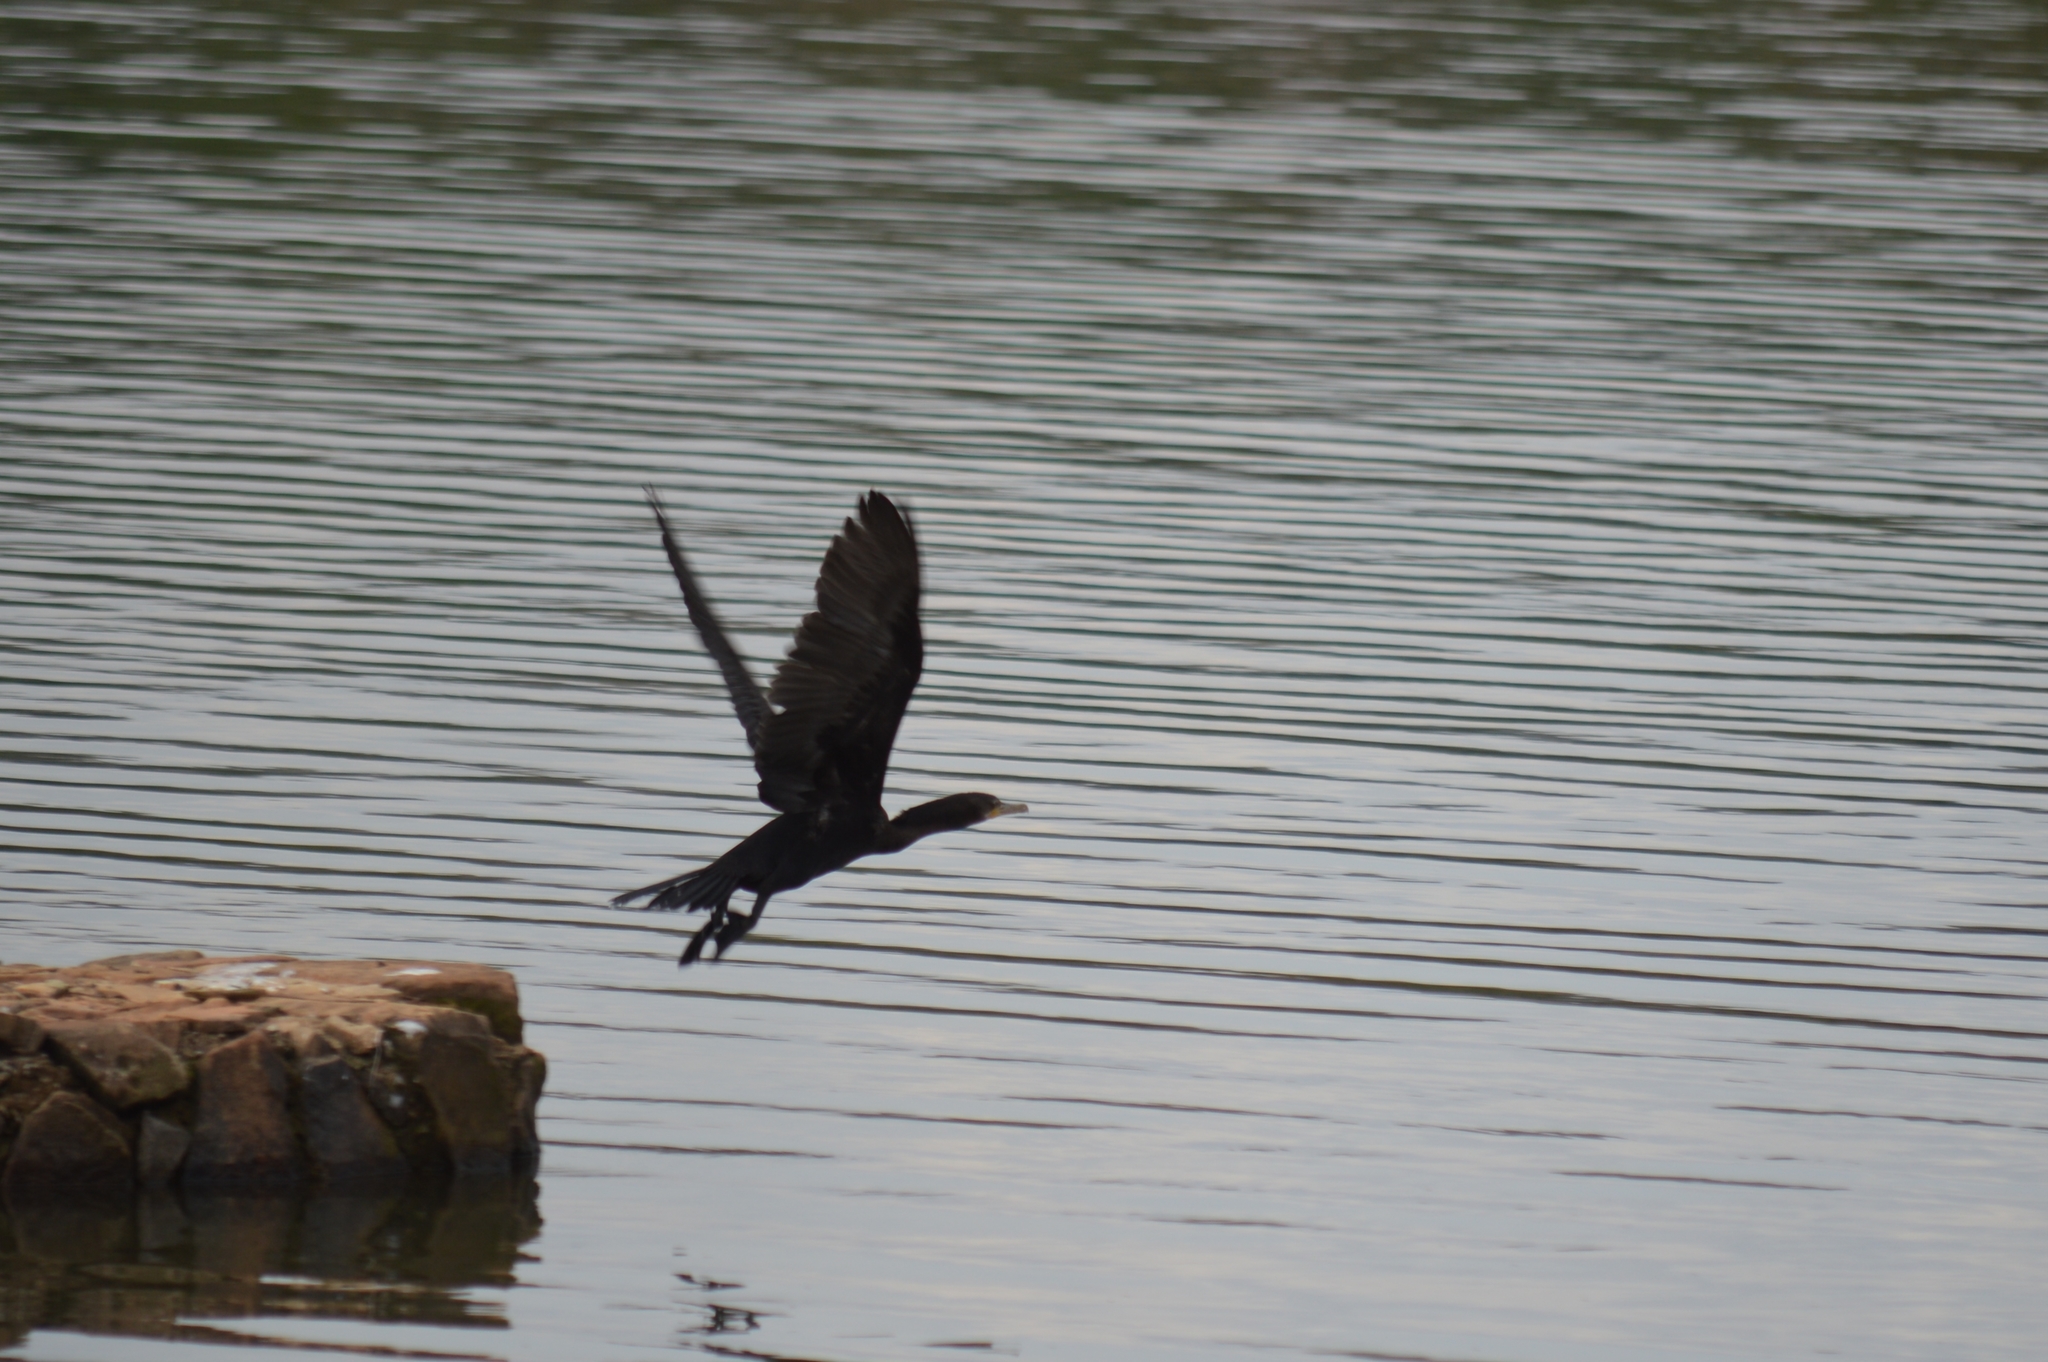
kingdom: Animalia
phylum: Chordata
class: Aves
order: Suliformes
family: Phalacrocoracidae
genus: Phalacrocorax
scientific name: Phalacrocorax brasilianus
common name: Neotropic cormorant
